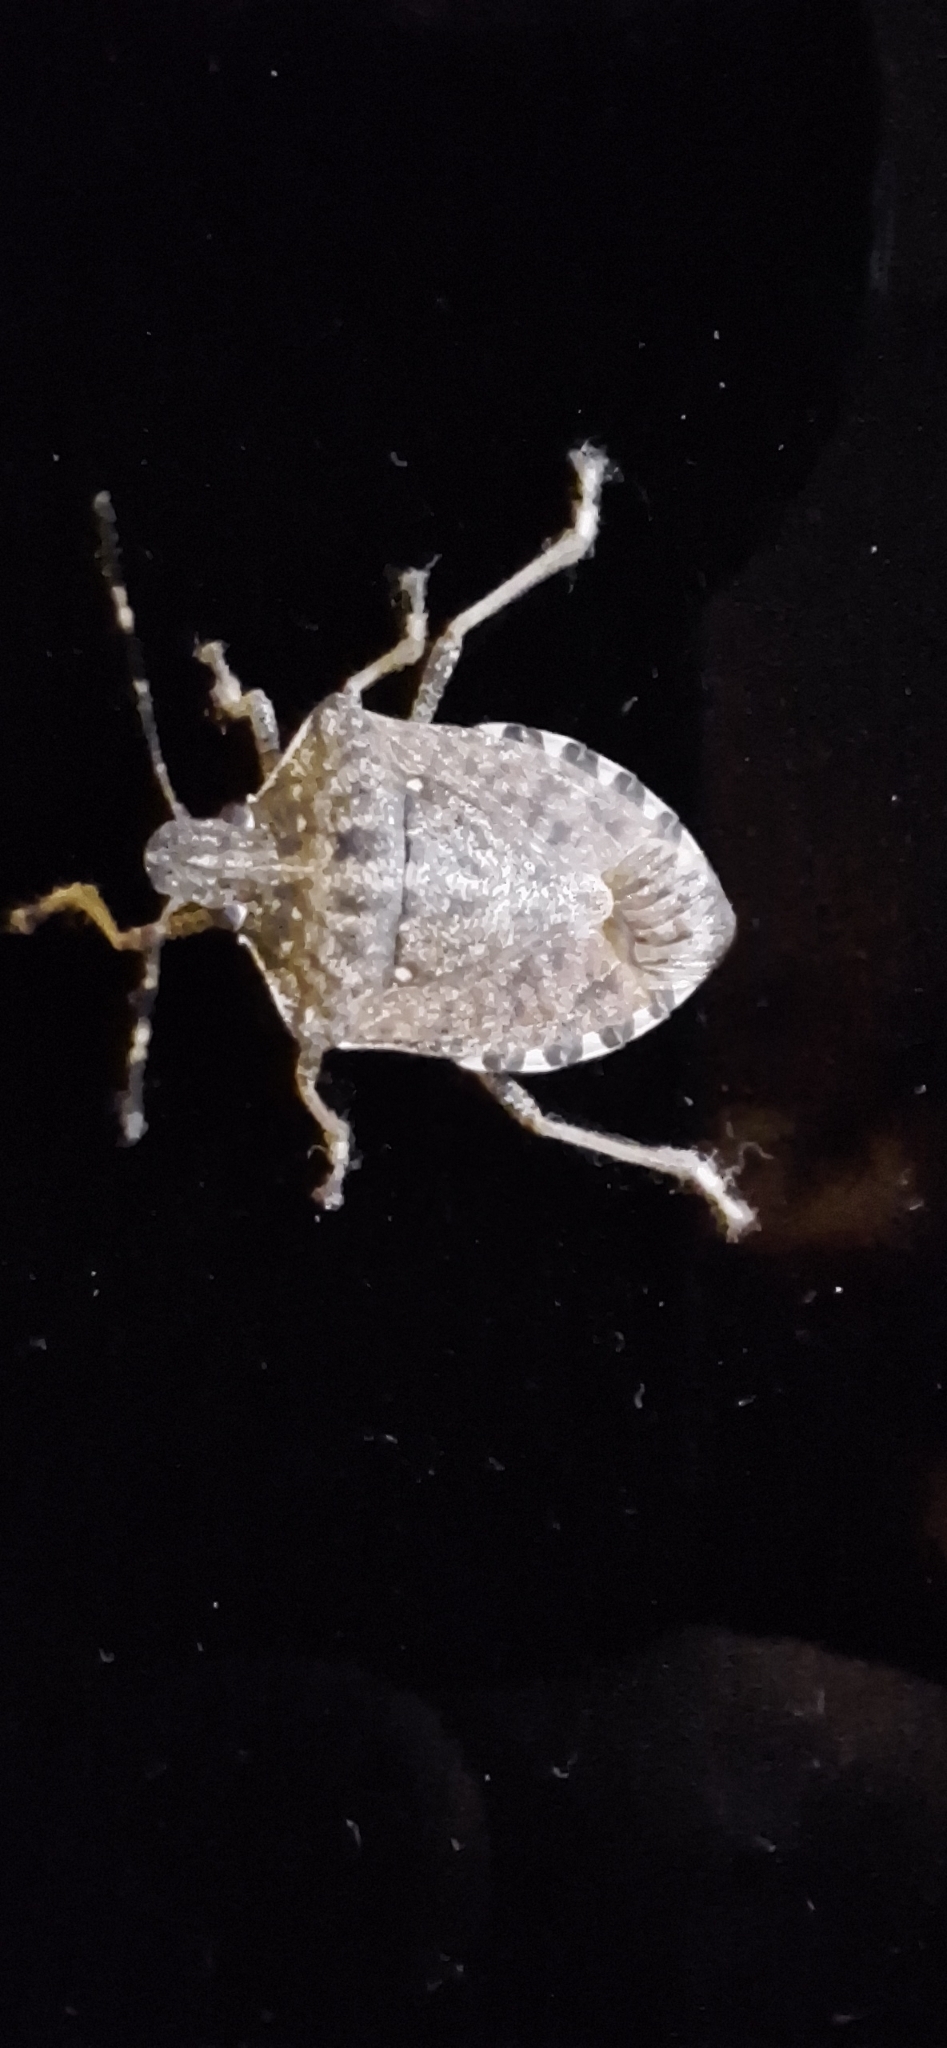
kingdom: Animalia
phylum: Arthropoda
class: Insecta
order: Hemiptera
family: Pentatomidae
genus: Halyomorpha
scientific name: Halyomorpha halys
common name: Brown marmorated stink bug
